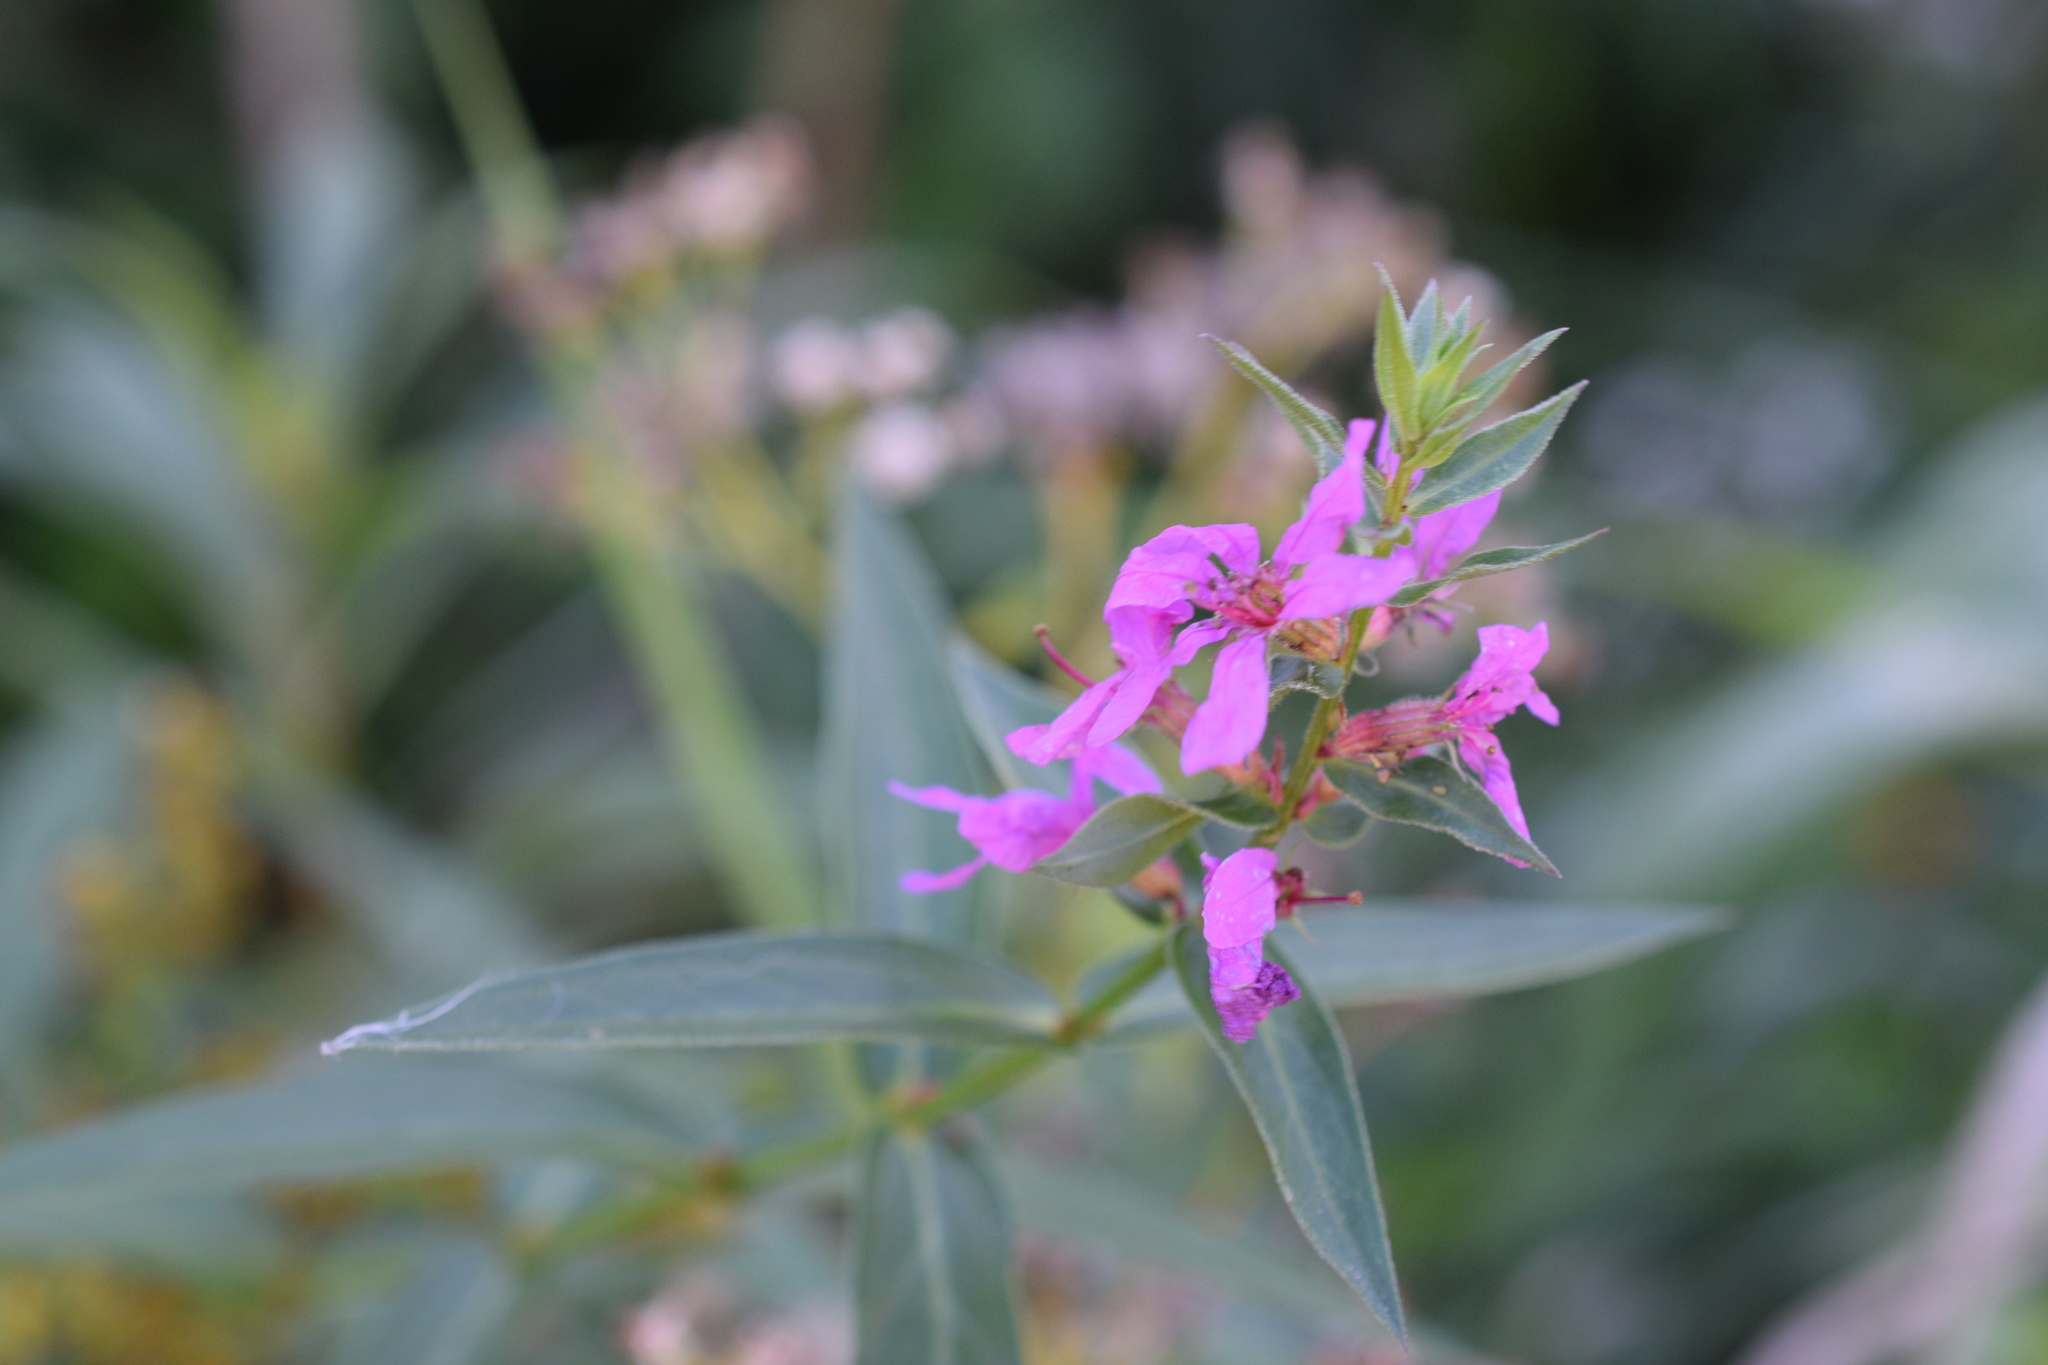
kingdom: Plantae
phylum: Tracheophyta
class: Magnoliopsida
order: Myrtales
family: Lythraceae
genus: Lythrum
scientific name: Lythrum salicaria
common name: Purple loosestrife
